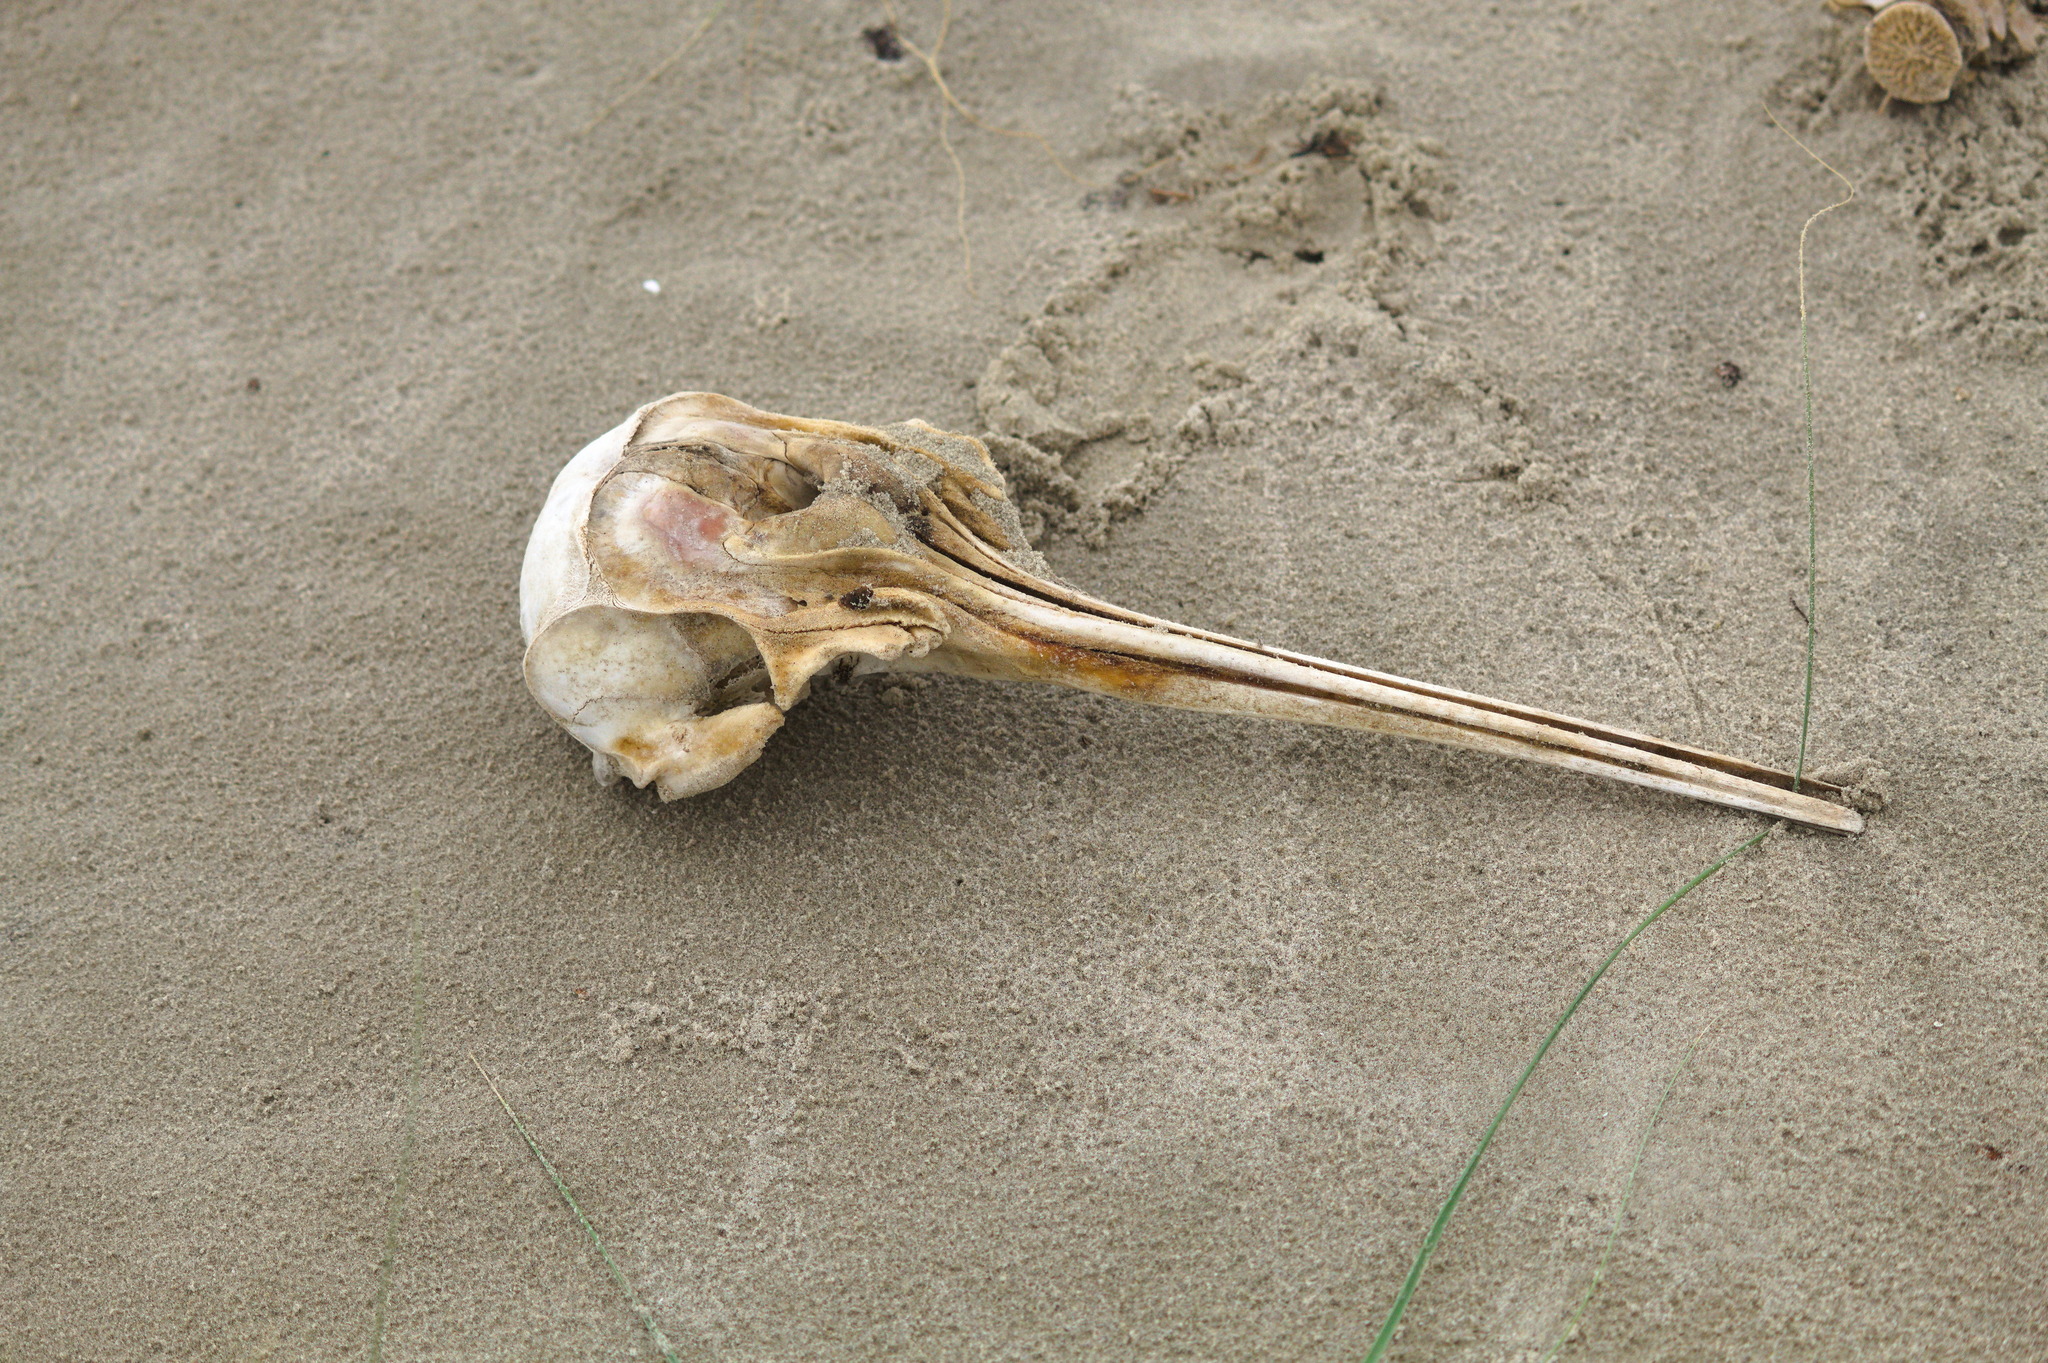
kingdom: Animalia
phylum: Chordata
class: Mammalia
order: Cetacea
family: Pontoporiidae
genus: Pontoporia
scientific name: Pontoporia blainvillei
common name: Franciscana
